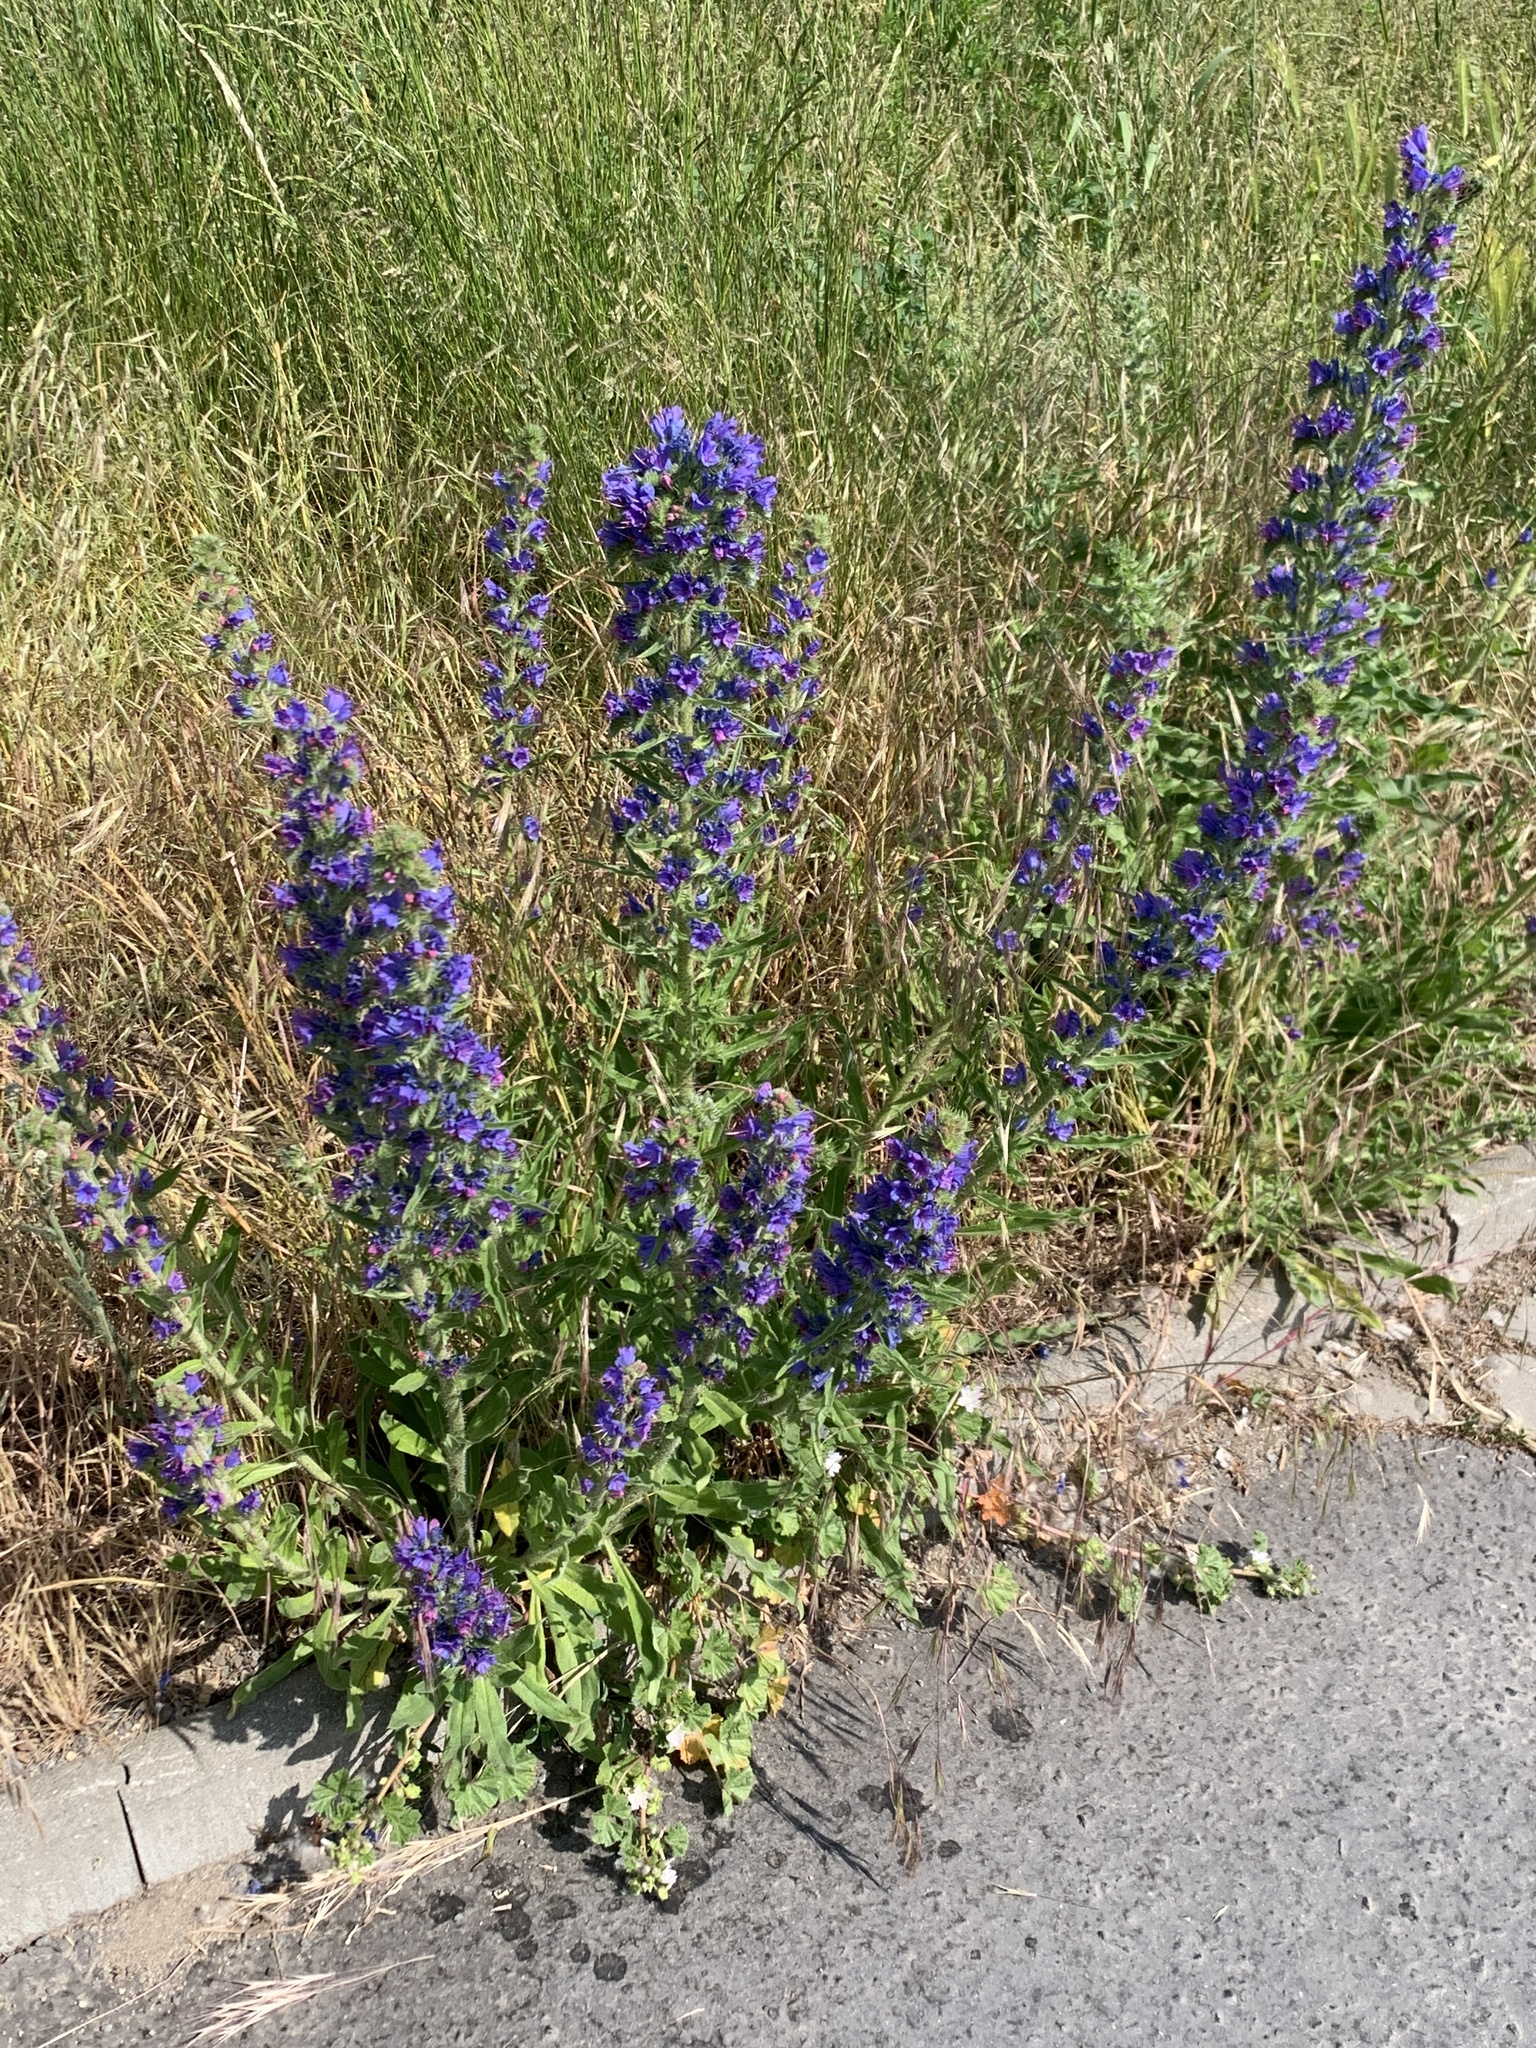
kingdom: Plantae
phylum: Tracheophyta
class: Magnoliopsida
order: Boraginales
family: Boraginaceae
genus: Echium
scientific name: Echium vulgare
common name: Common viper's bugloss
